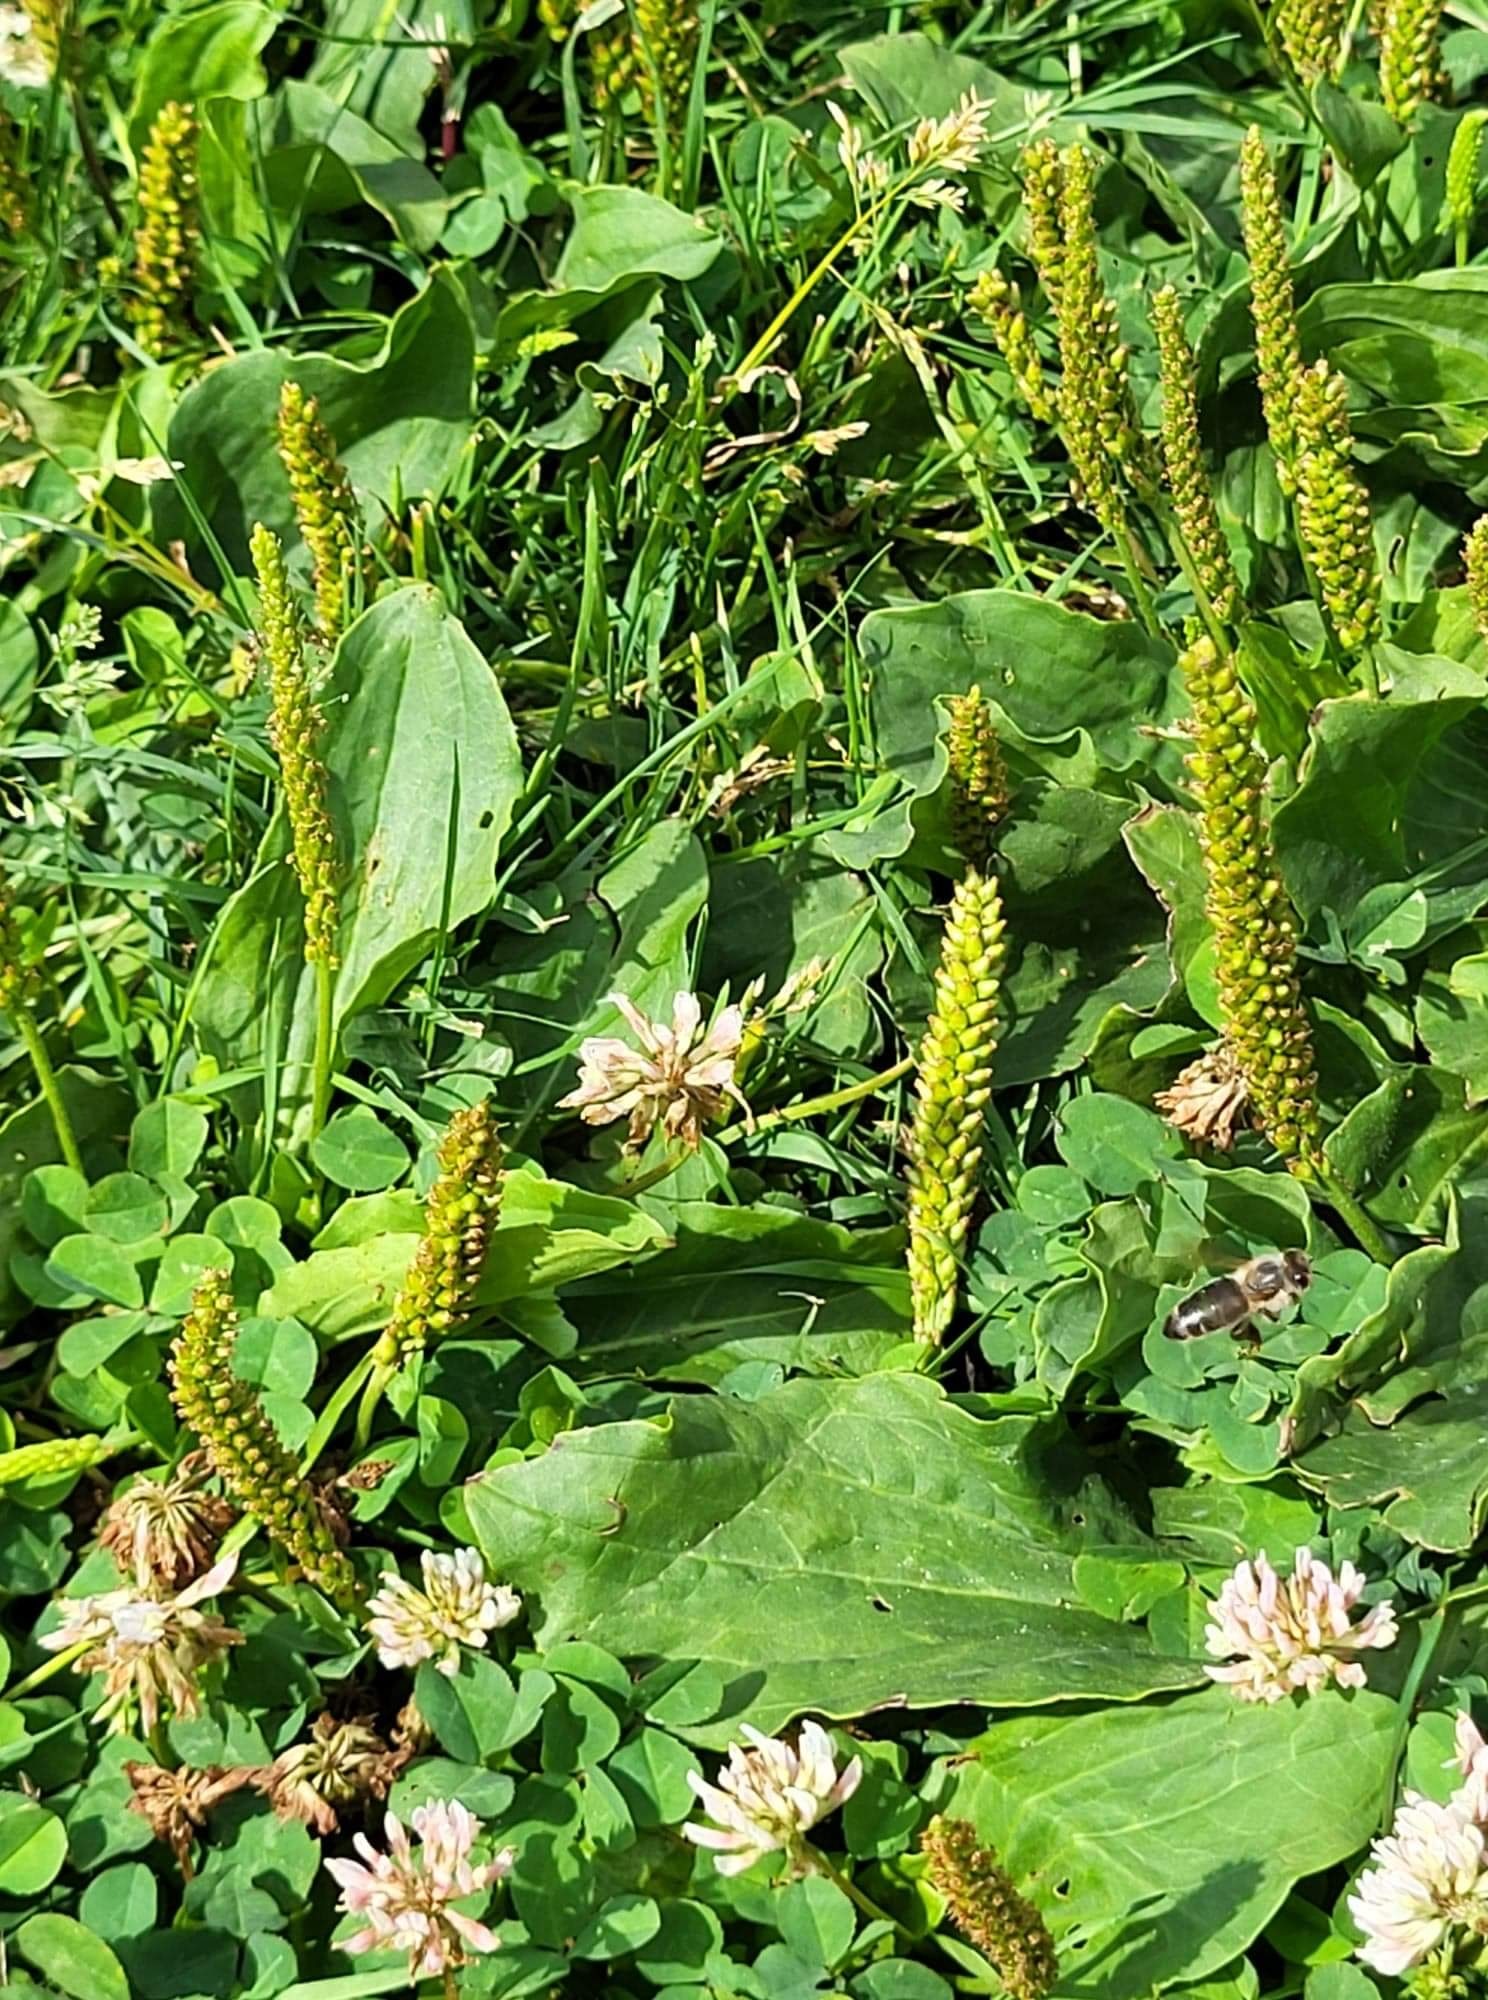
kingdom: Animalia
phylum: Arthropoda
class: Insecta
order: Hymenoptera
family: Apidae
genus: Apis
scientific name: Apis mellifera
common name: Honey bee
